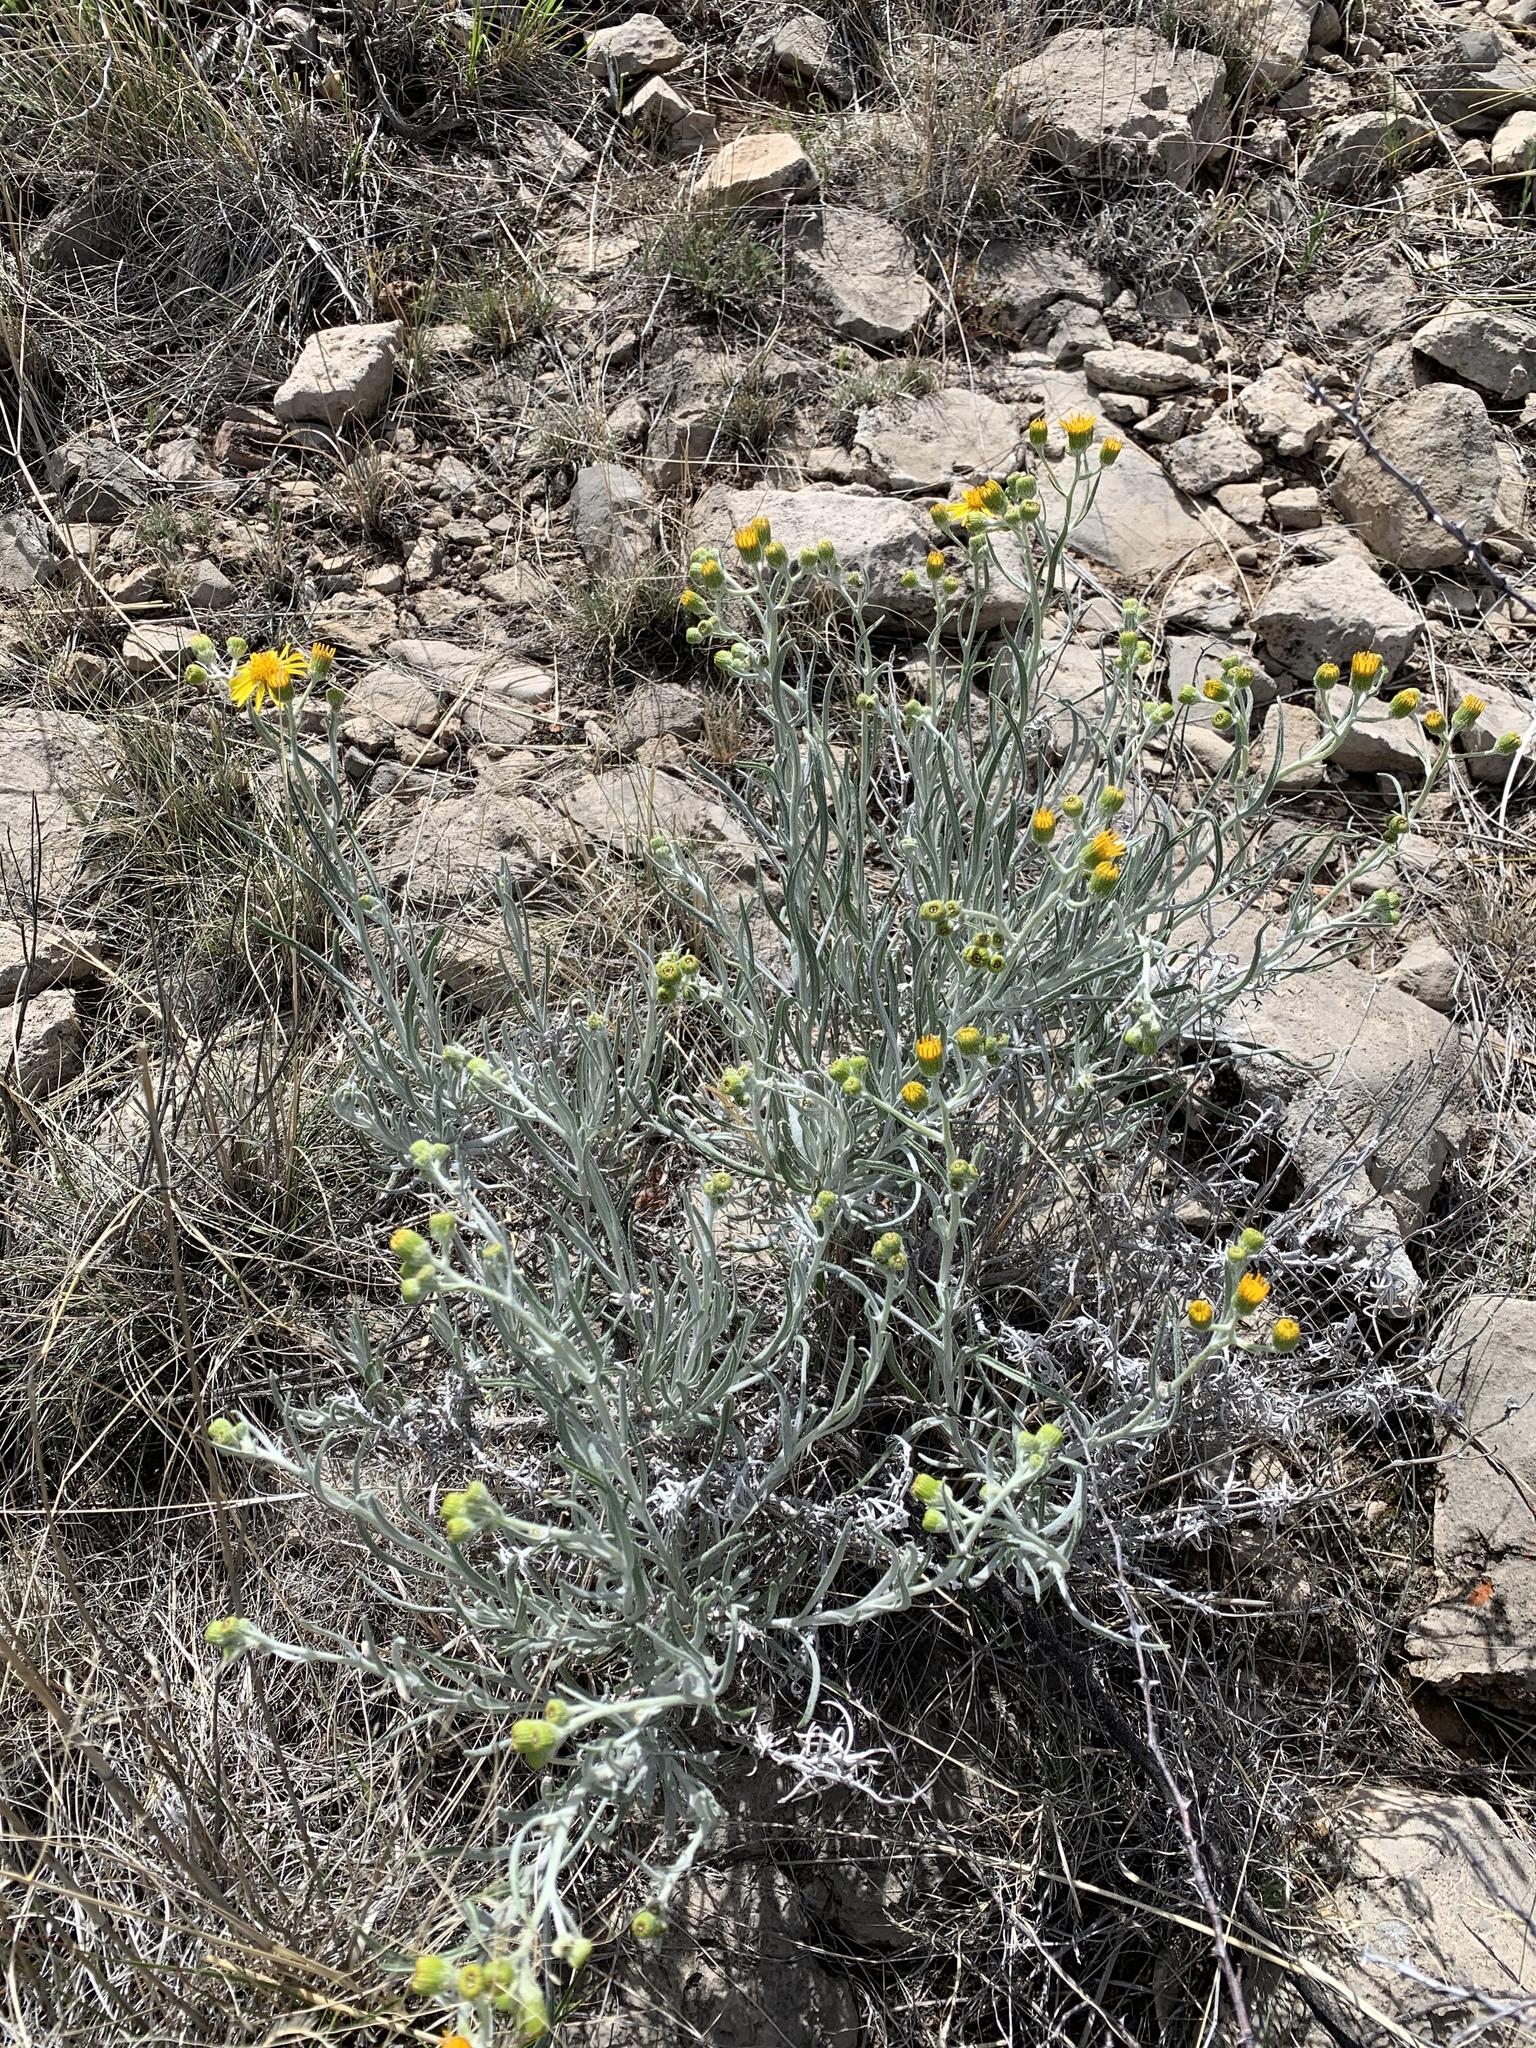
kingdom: Plantae
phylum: Tracheophyta
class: Magnoliopsida
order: Asterales
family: Asteraceae
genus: Senecio
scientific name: Senecio flaccidus
